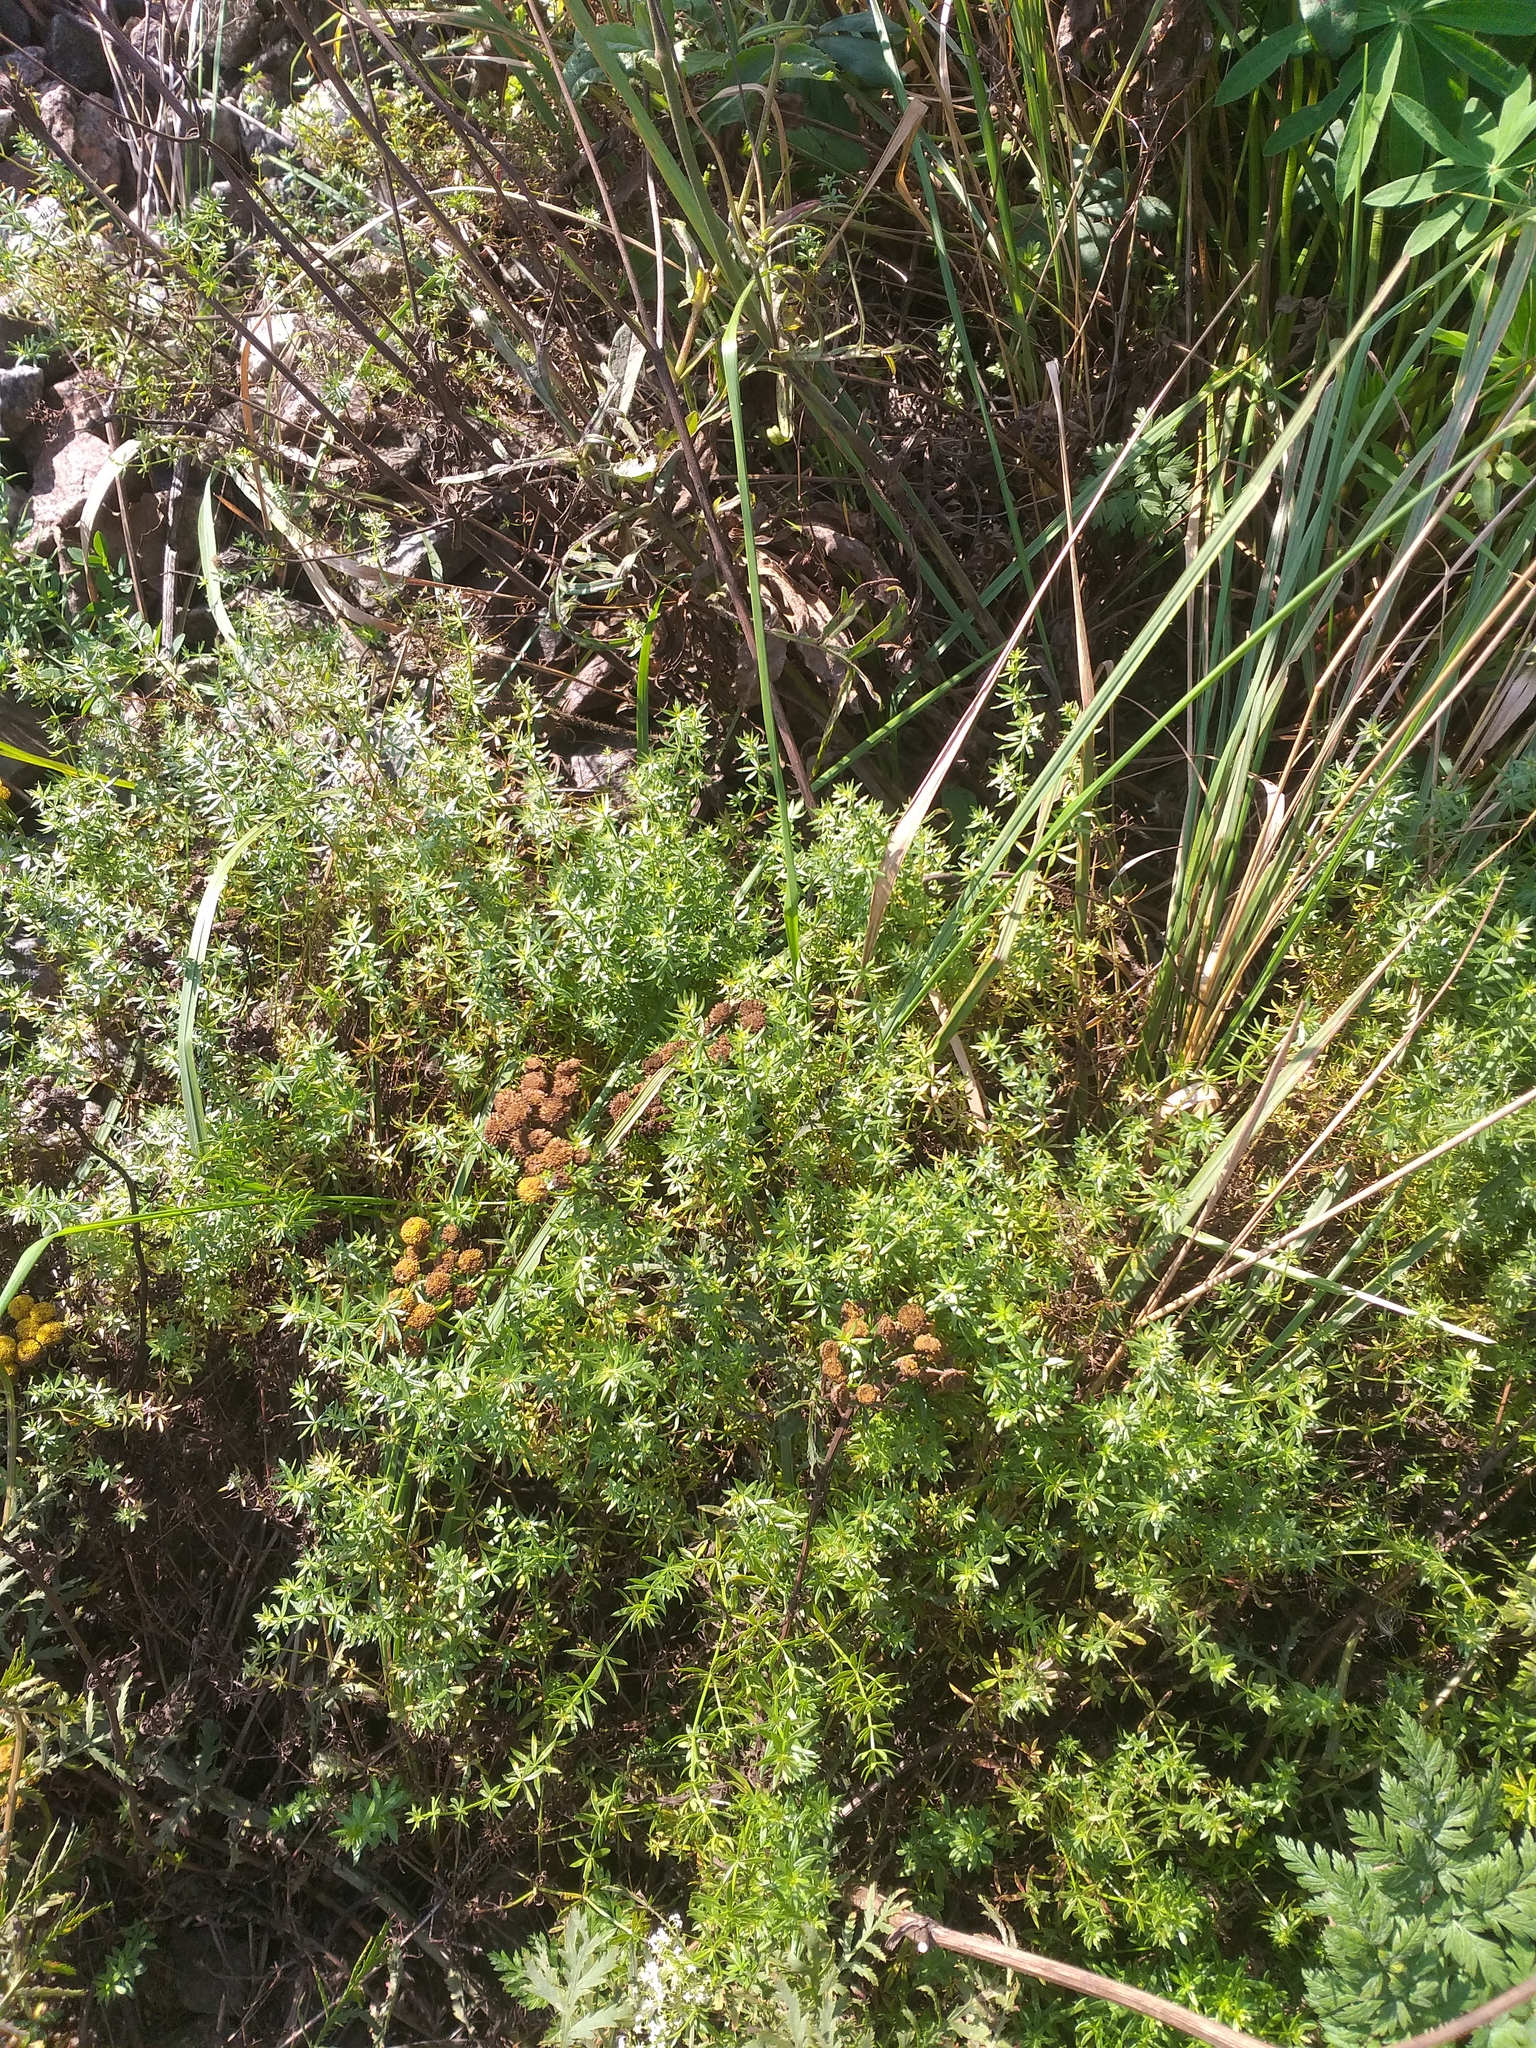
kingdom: Plantae
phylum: Tracheophyta
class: Magnoliopsida
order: Asterales
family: Asteraceae
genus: Tanacetum
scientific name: Tanacetum vulgare
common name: Common tansy
